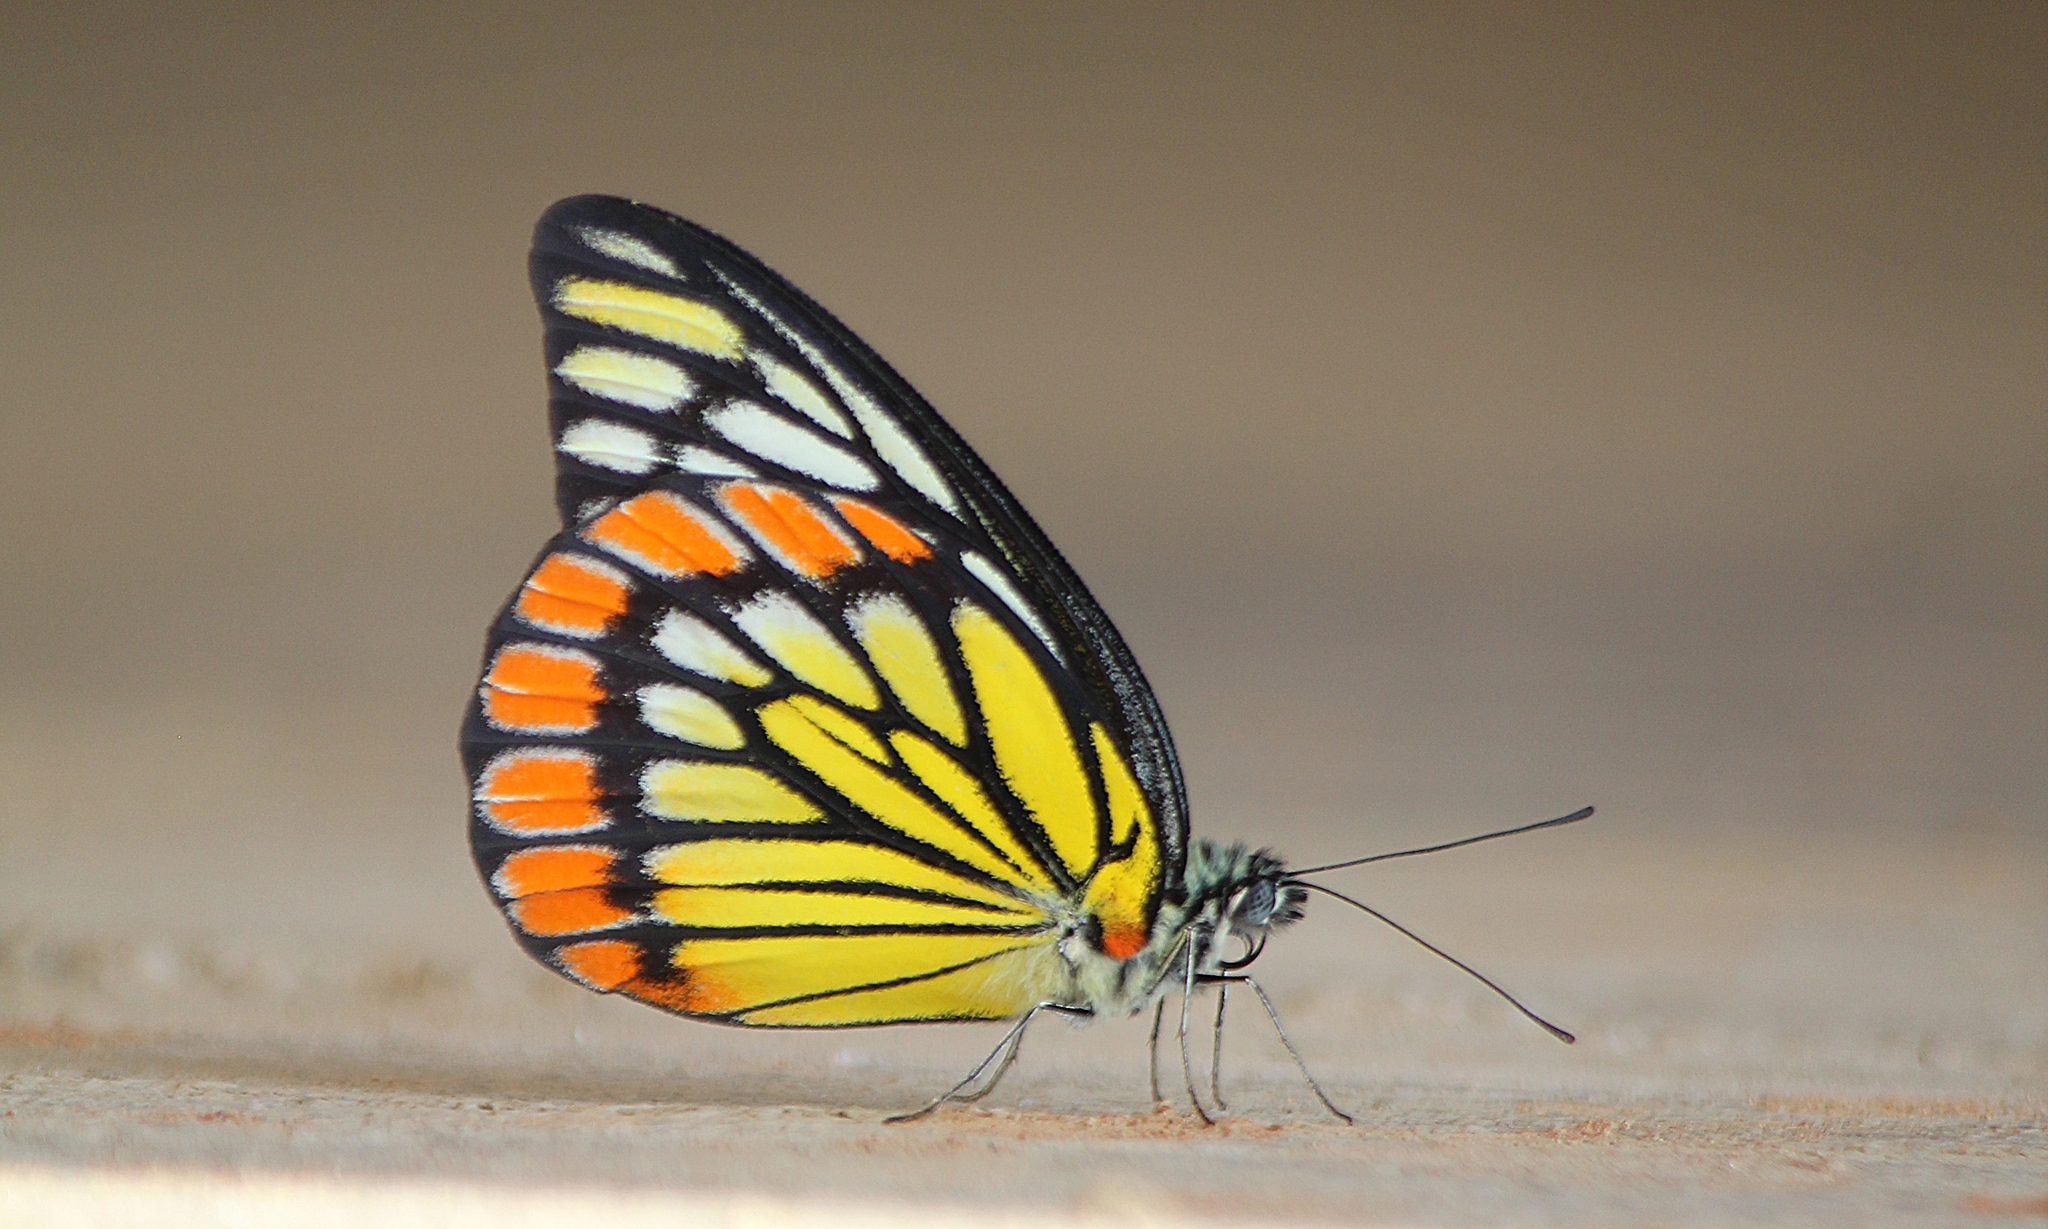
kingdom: Animalia
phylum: Arthropoda
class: Insecta
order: Lepidoptera
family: Pieridae
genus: Prioneris
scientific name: Prioneris sita
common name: Painted sawtooth
